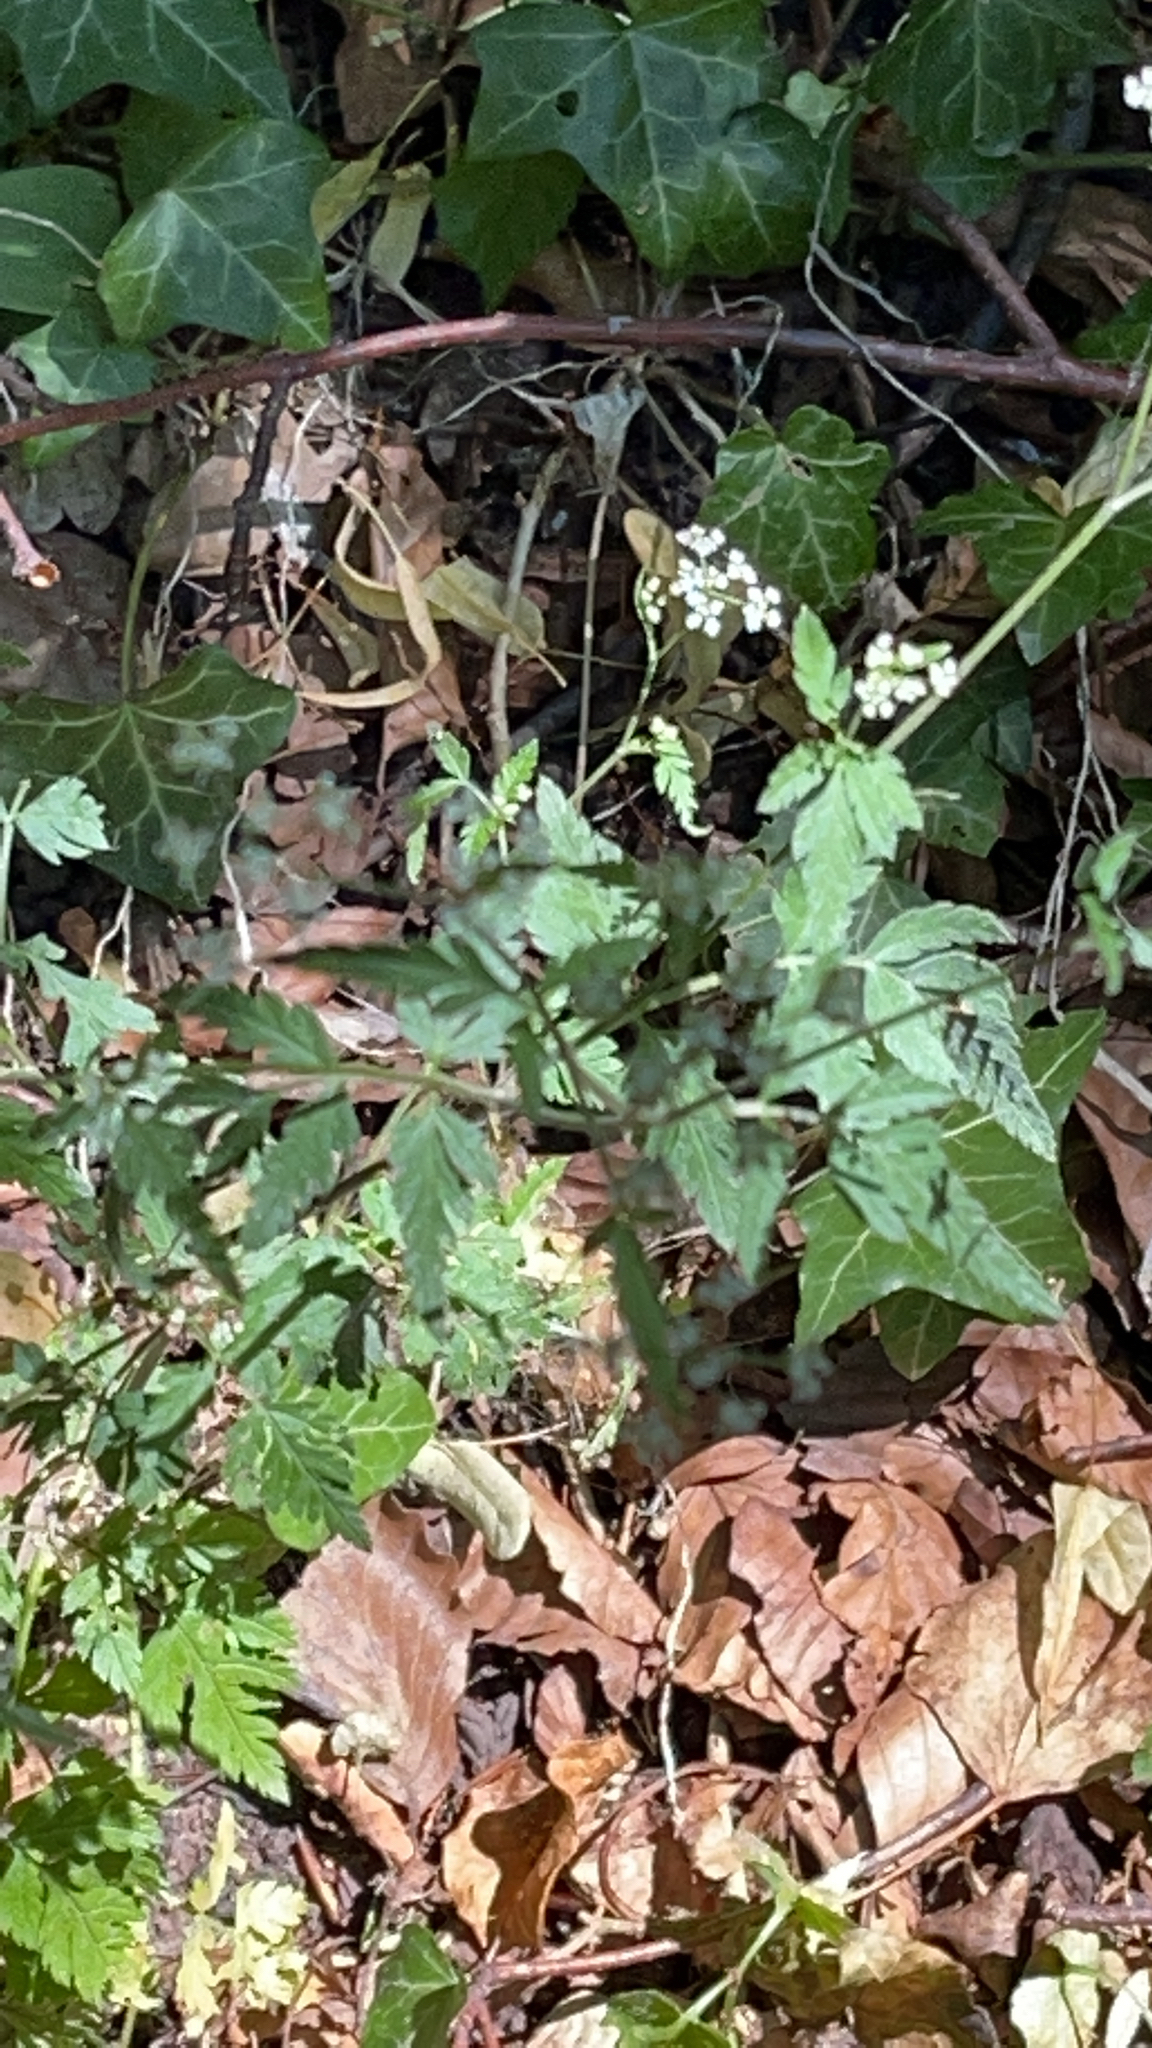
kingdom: Plantae
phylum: Tracheophyta
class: Magnoliopsida
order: Apiales
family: Apiaceae
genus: Torilis
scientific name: Torilis japonica
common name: Upright hedge-parsley
